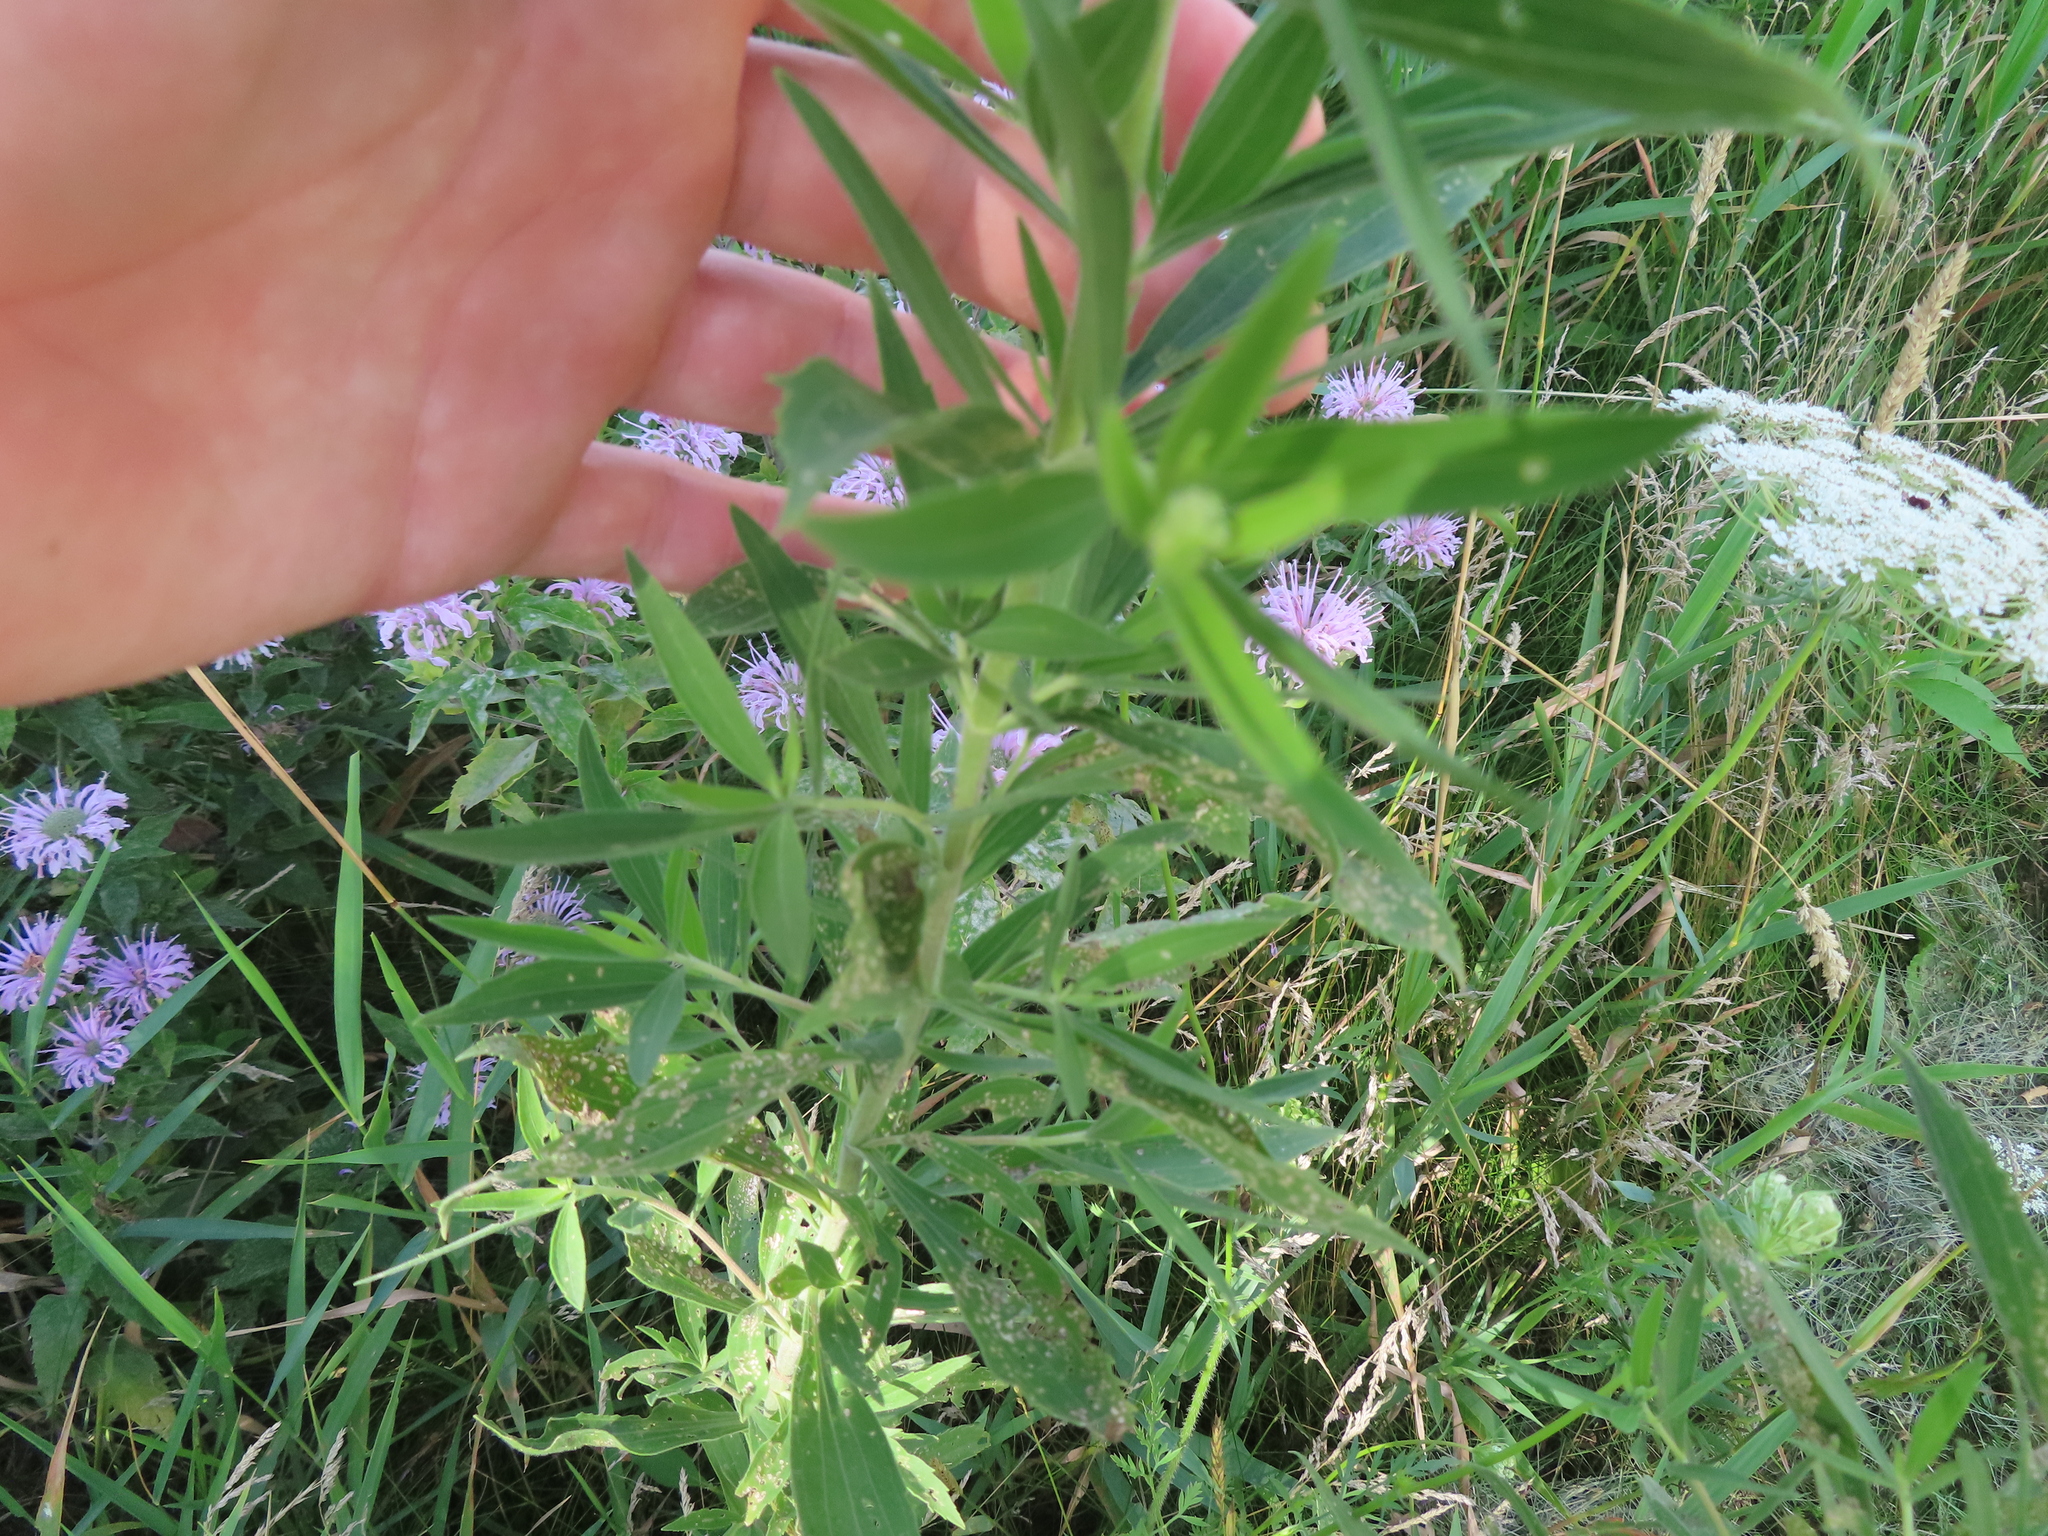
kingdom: Plantae
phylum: Tracheophyta
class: Magnoliopsida
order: Asterales
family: Asteraceae
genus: Eupatorium
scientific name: Eupatorium altissimum
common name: Tall thoroughwort
